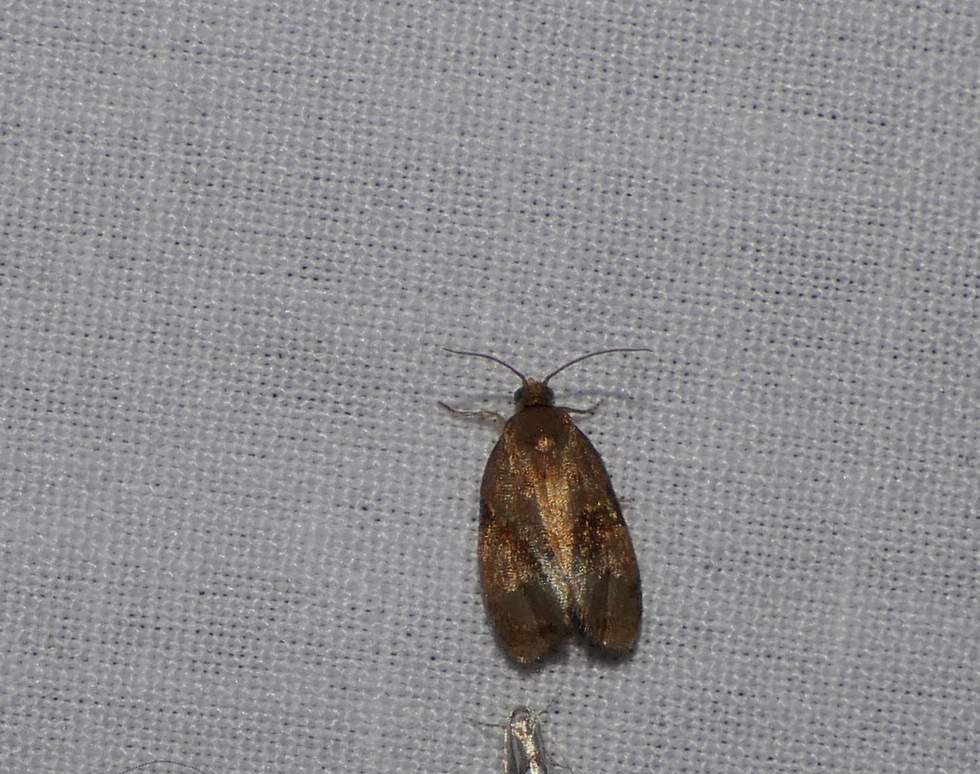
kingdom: Animalia
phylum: Arthropoda
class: Insecta
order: Lepidoptera
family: Tortricidae
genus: Evora
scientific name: Evora hemidesma
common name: Spirea leaftier moth
